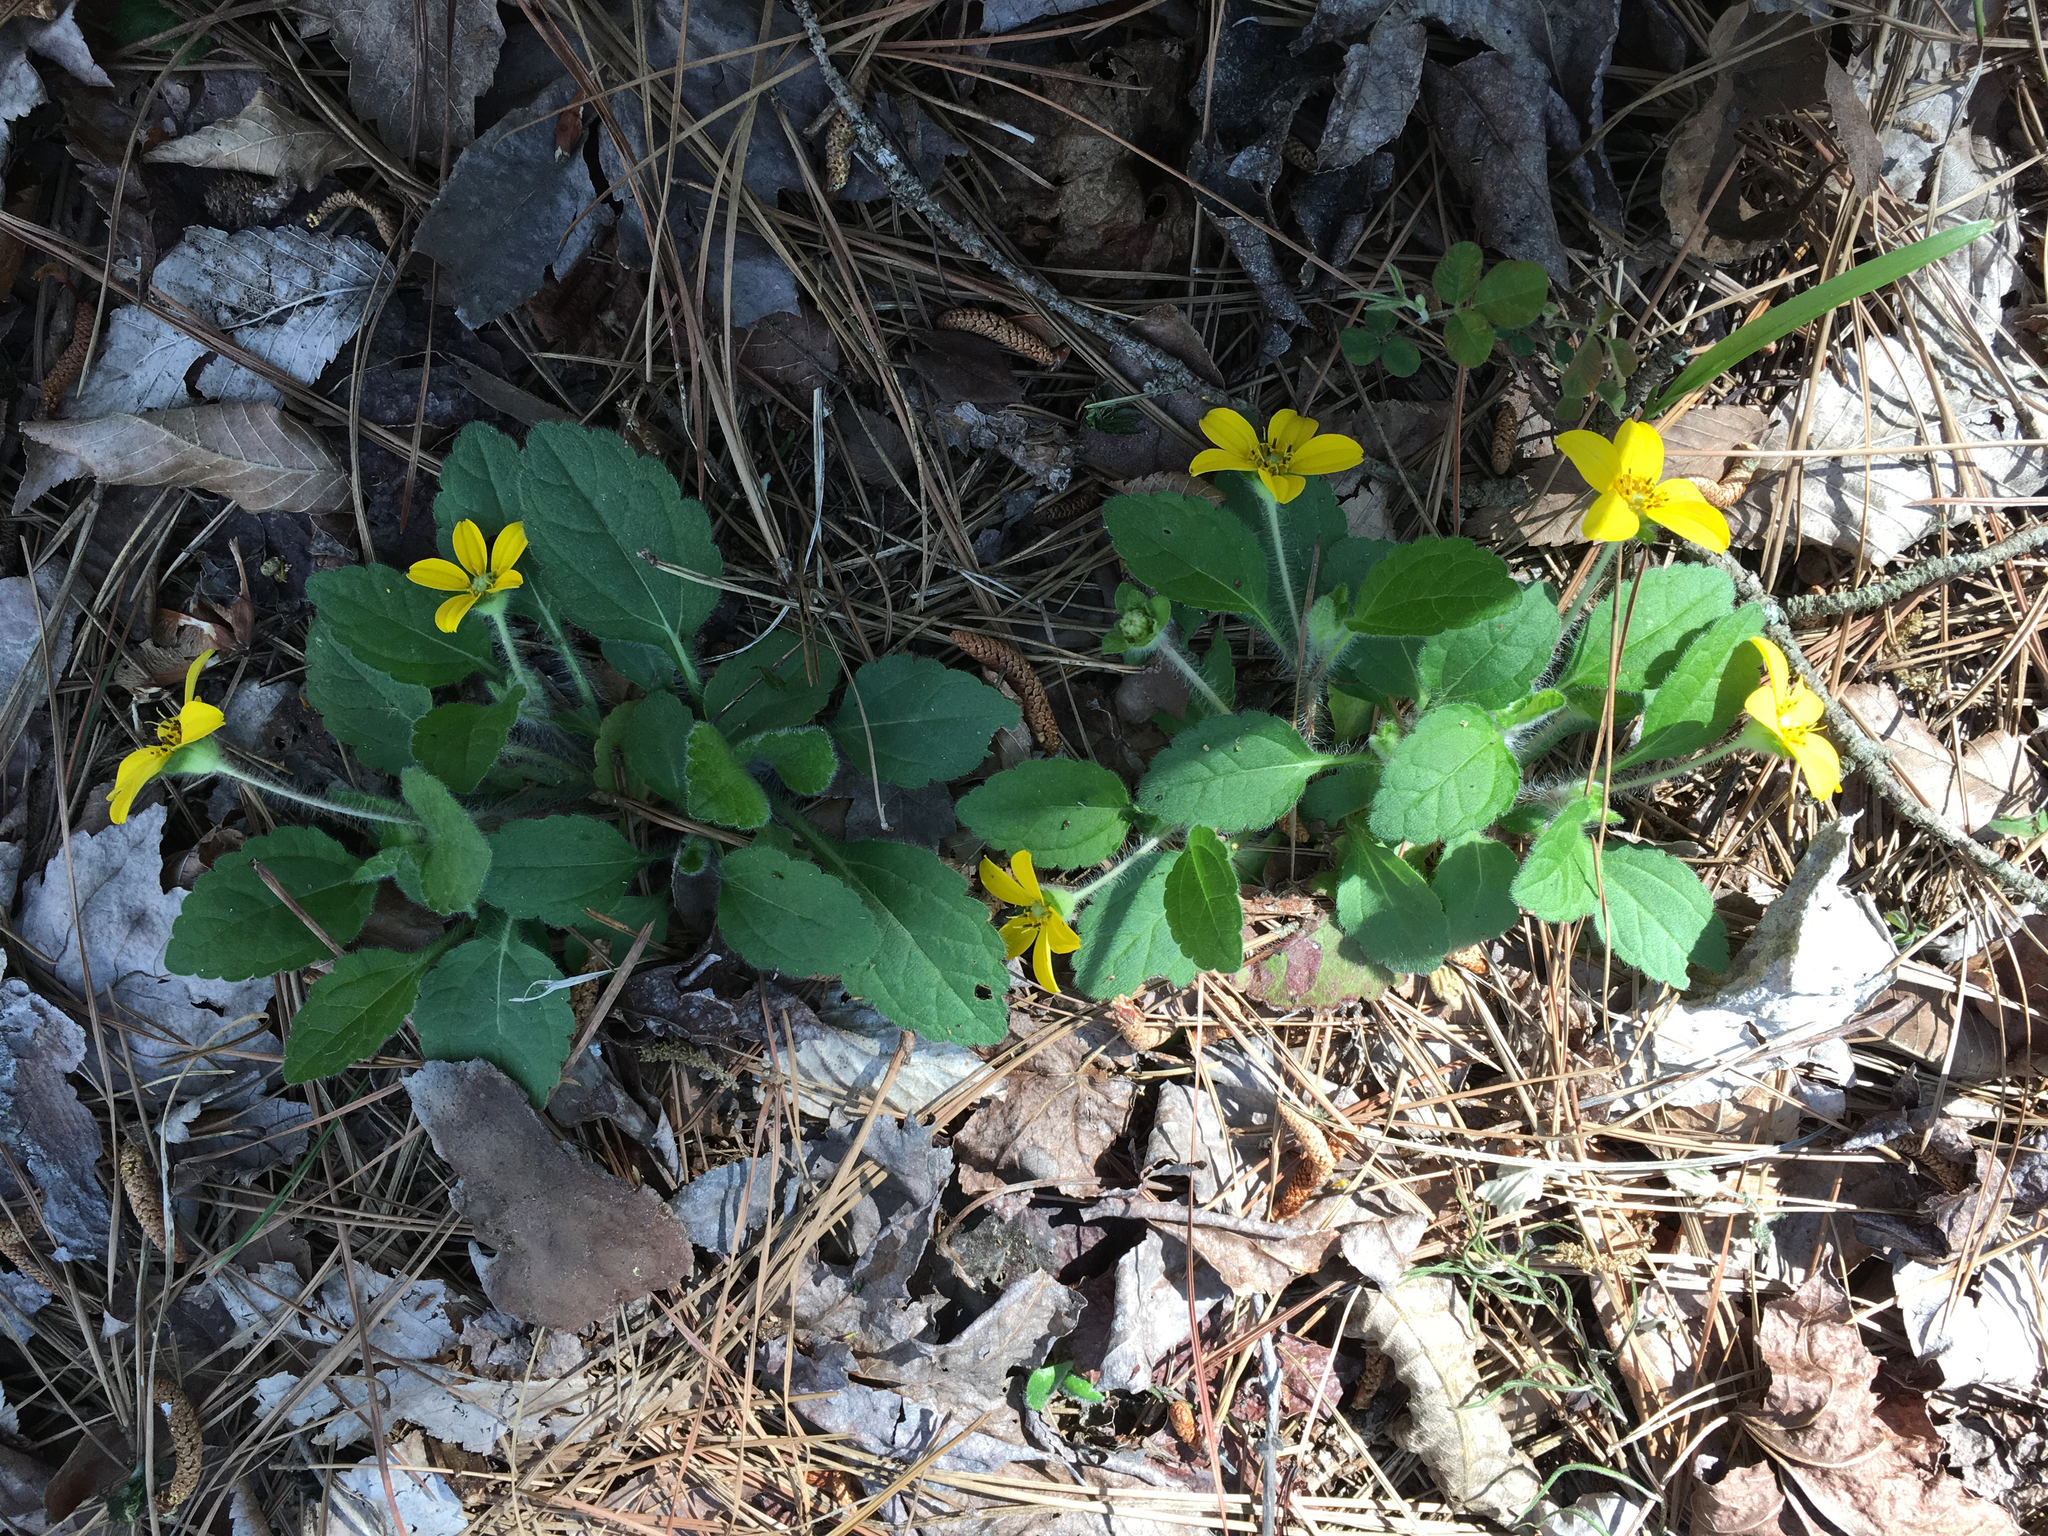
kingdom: Plantae
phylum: Tracheophyta
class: Magnoliopsida
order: Asterales
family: Asteraceae
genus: Chrysogonum
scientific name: Chrysogonum virginianum
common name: Golden-knee
